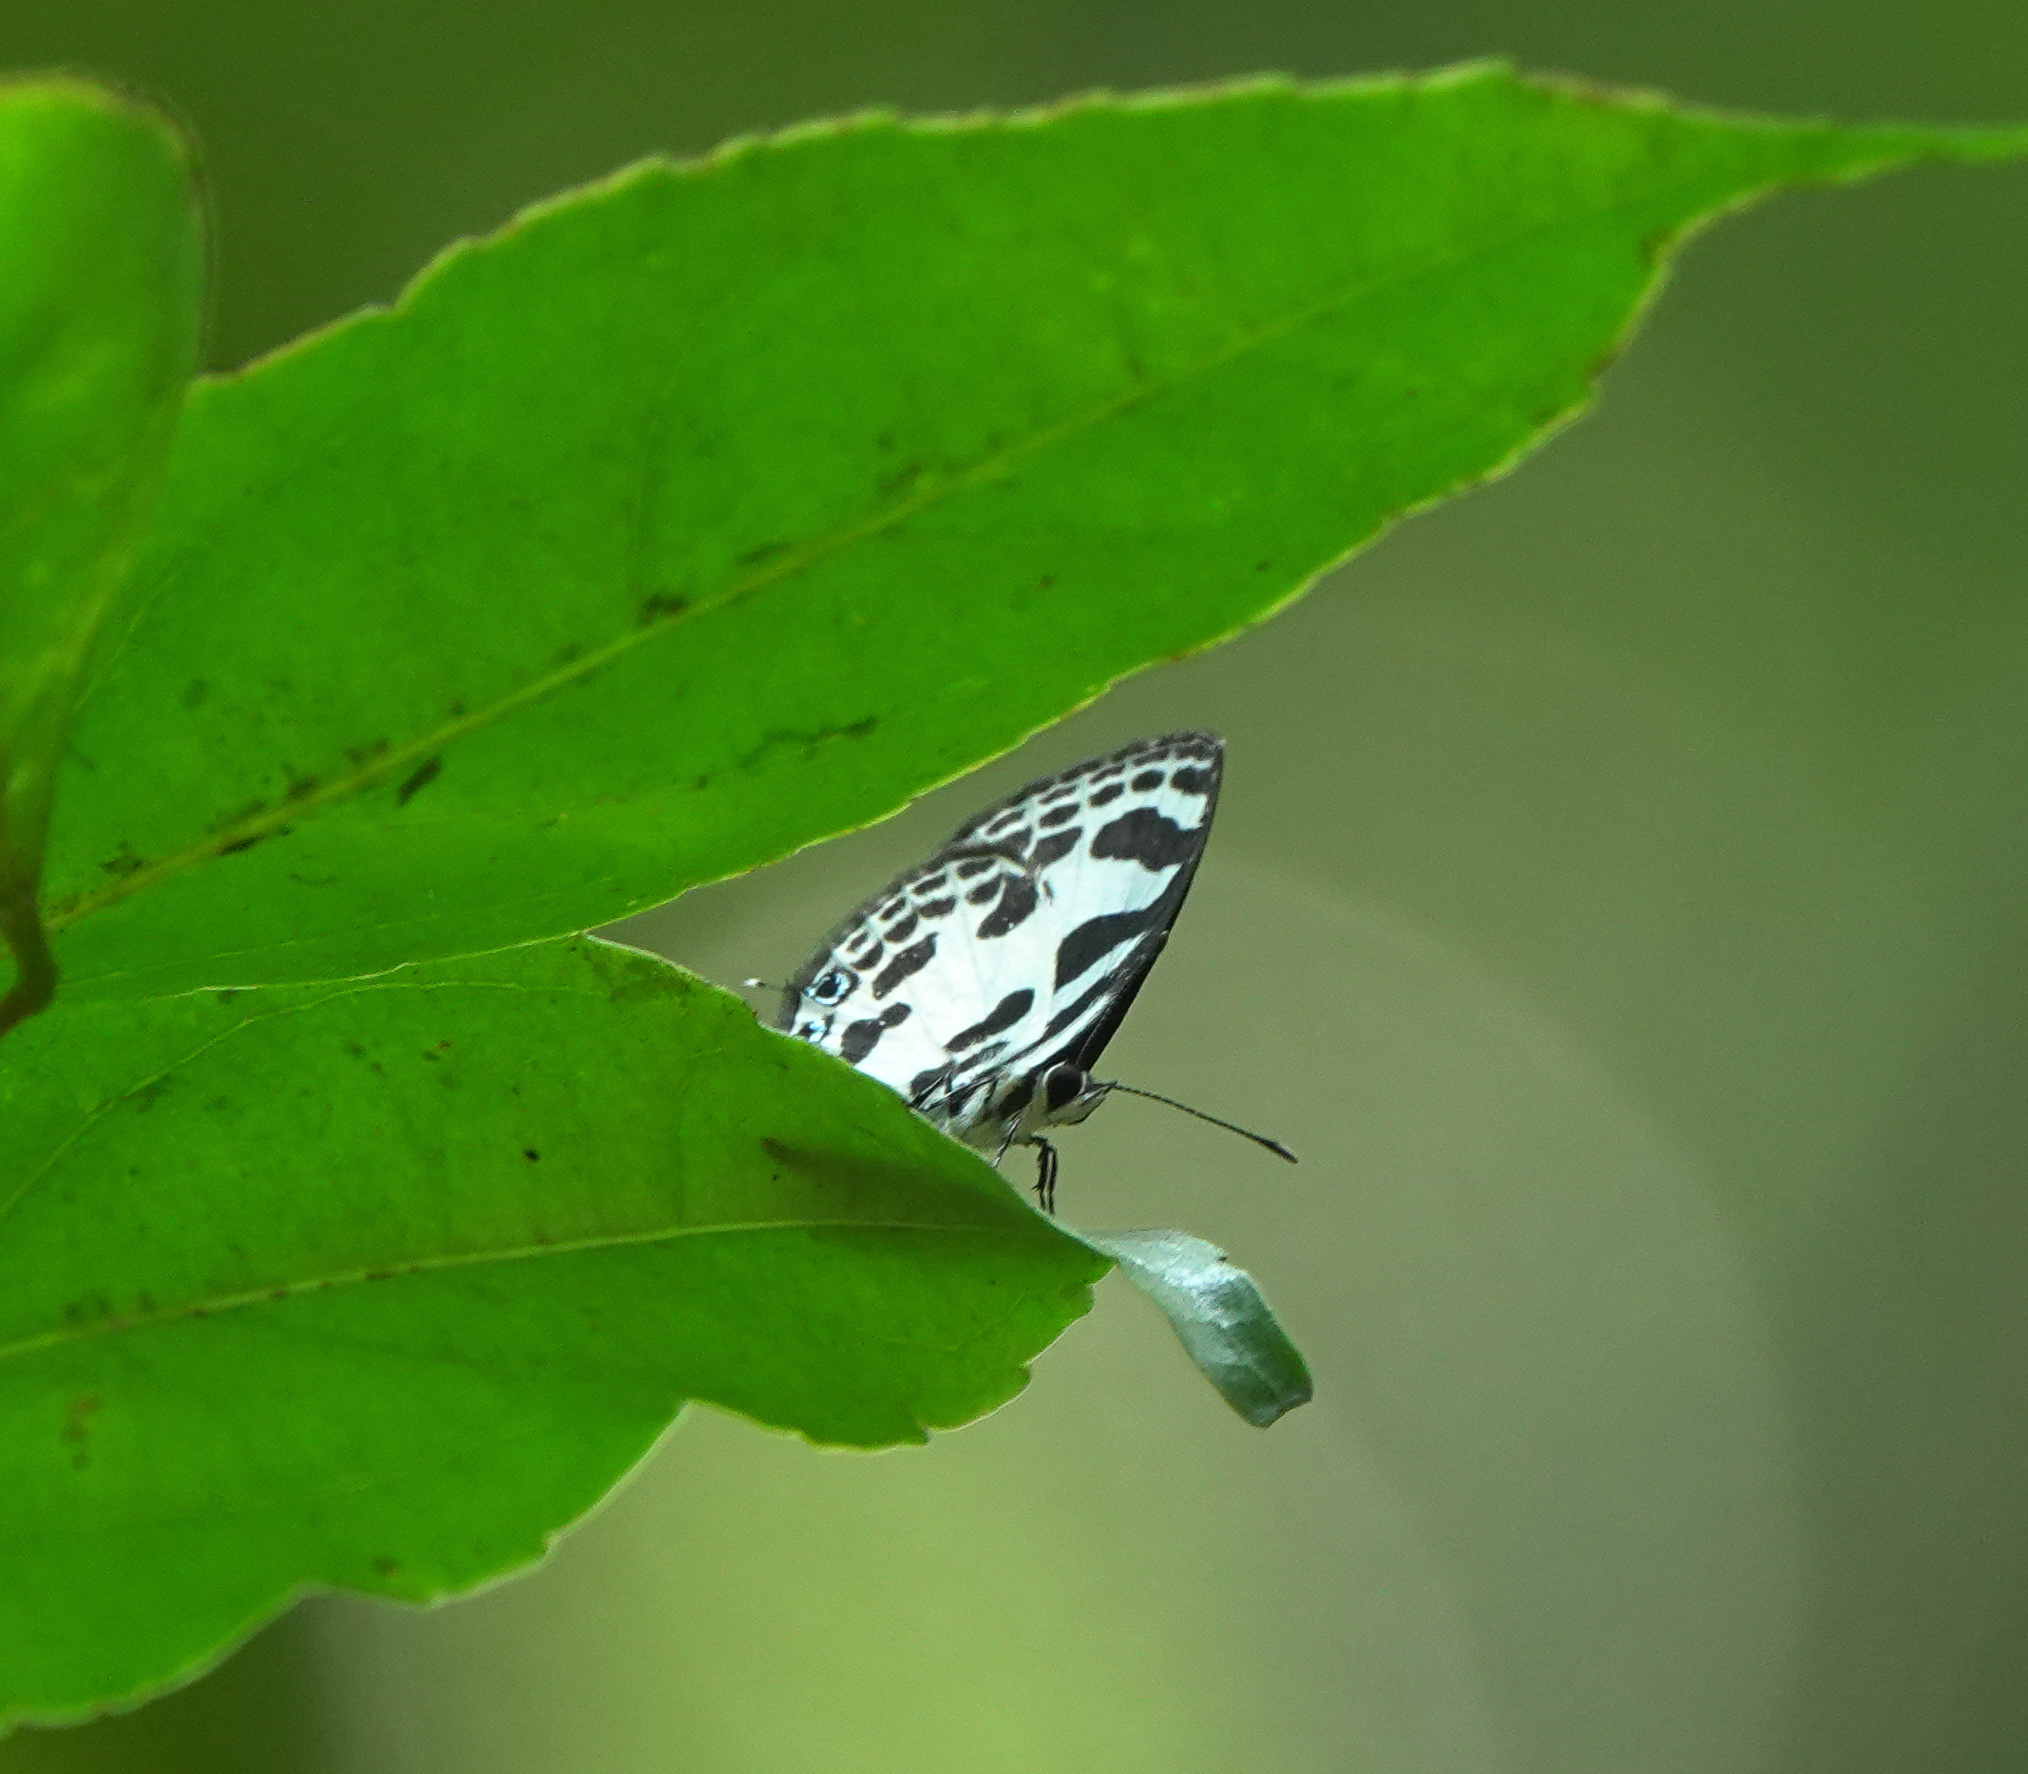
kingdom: Animalia
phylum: Arthropoda
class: Insecta
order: Lepidoptera
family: Lycaenidae
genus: Discolampa
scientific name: Discolampa ethion
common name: Banded blue pierrot
